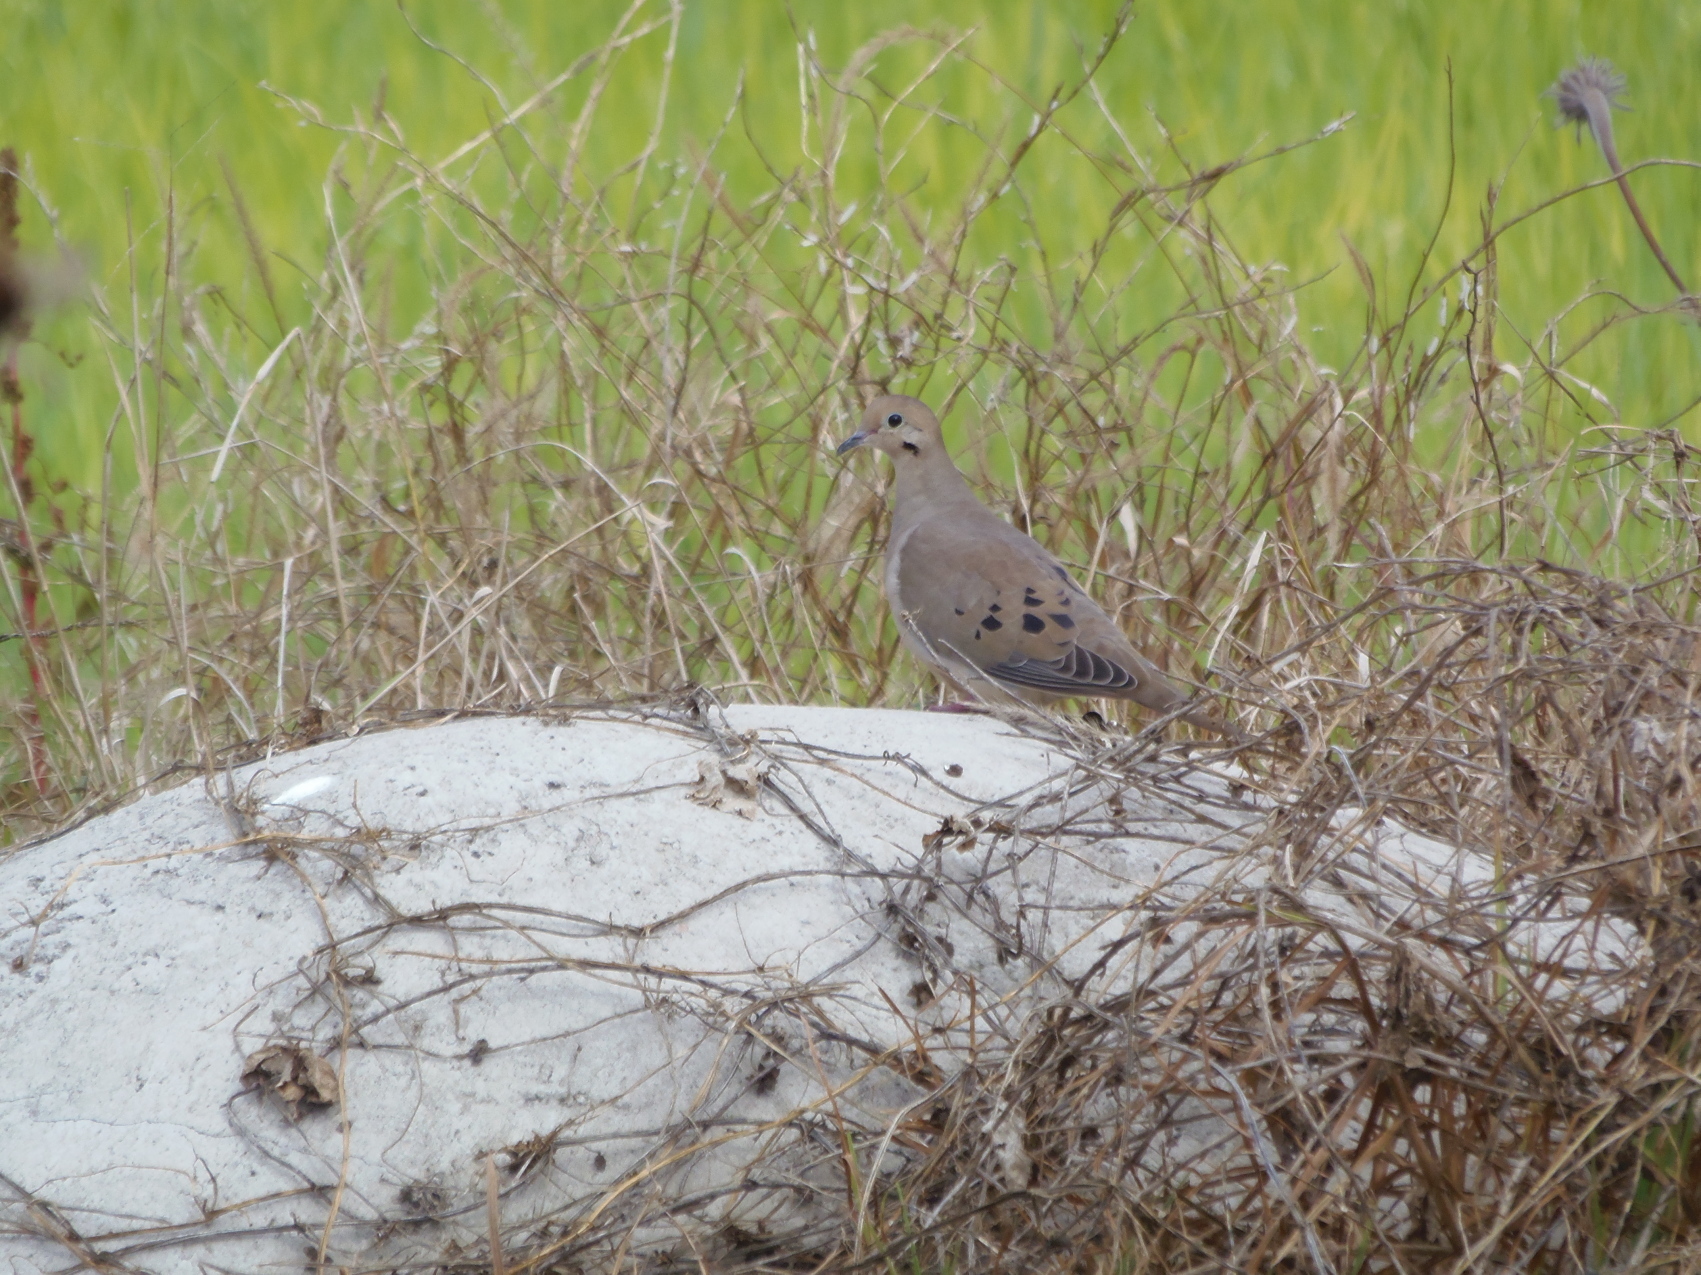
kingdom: Animalia
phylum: Chordata
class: Aves
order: Columbiformes
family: Columbidae
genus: Zenaida
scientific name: Zenaida macroura
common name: Mourning dove
